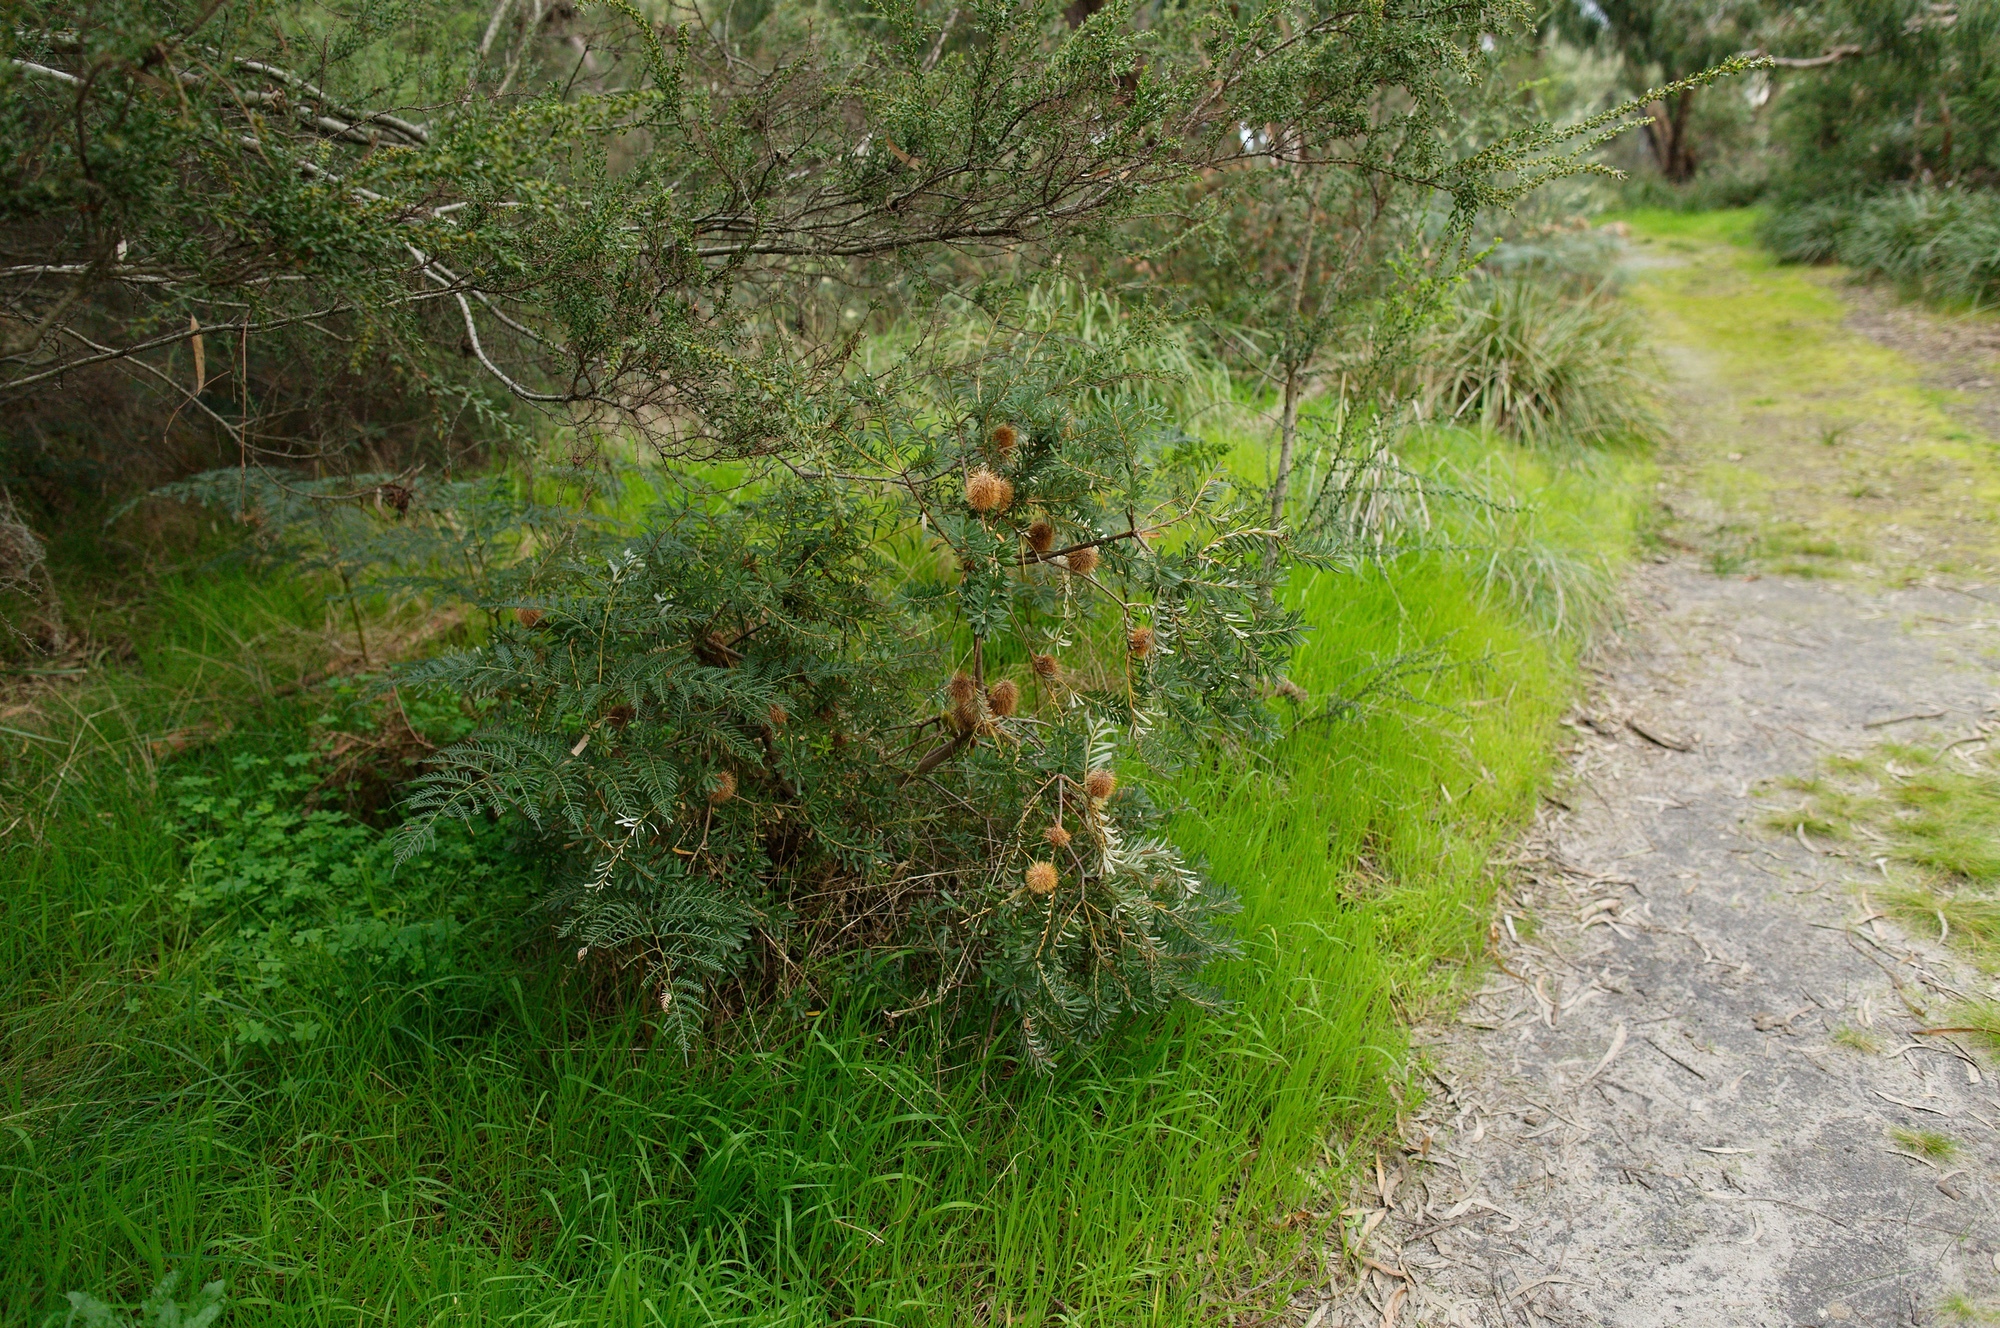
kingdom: Plantae
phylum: Tracheophyta
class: Magnoliopsida
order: Proteales
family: Proteaceae
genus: Banksia
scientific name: Banksia marginata
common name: Silver banksia
